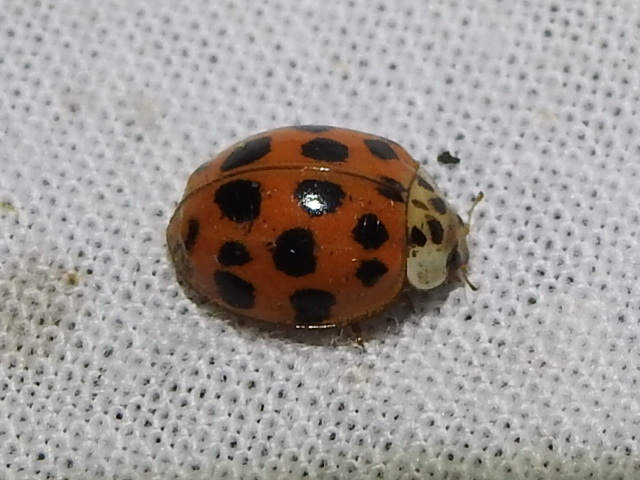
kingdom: Animalia
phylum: Arthropoda
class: Insecta
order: Coleoptera
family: Coccinellidae
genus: Harmonia
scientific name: Harmonia axyridis
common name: Harlequin ladybird
